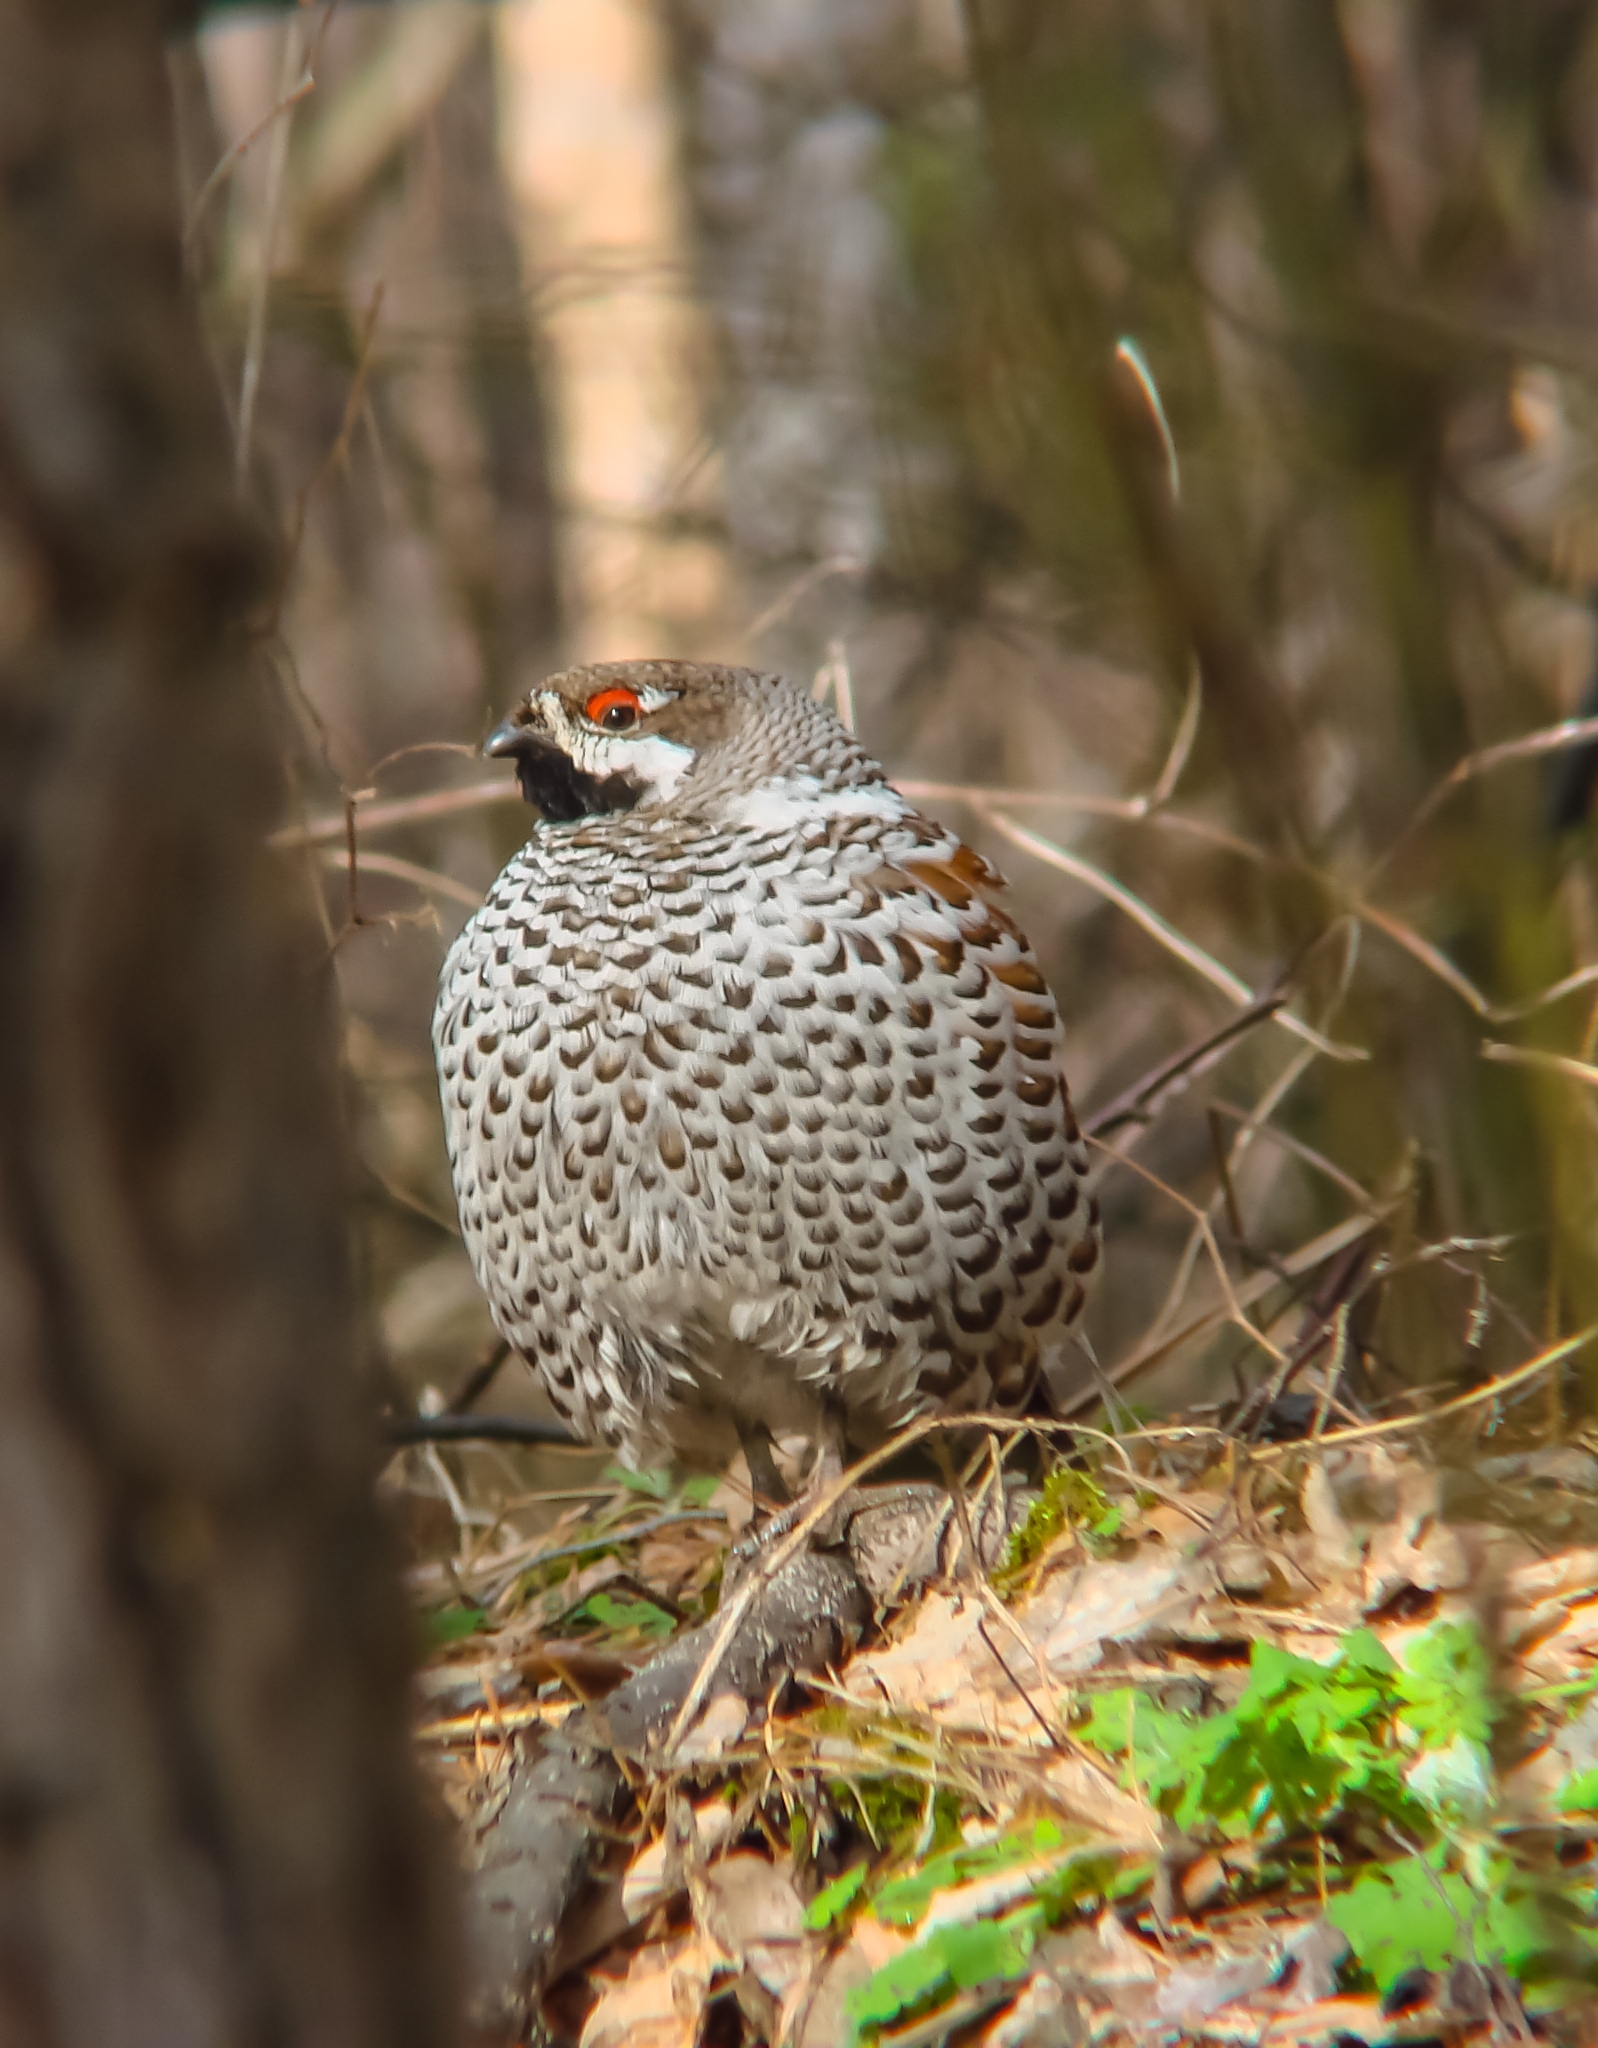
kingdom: Animalia
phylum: Chordata
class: Aves
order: Galliformes
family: Phasianidae
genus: Tetrastes
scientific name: Tetrastes bonasia
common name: Hazel grouse
